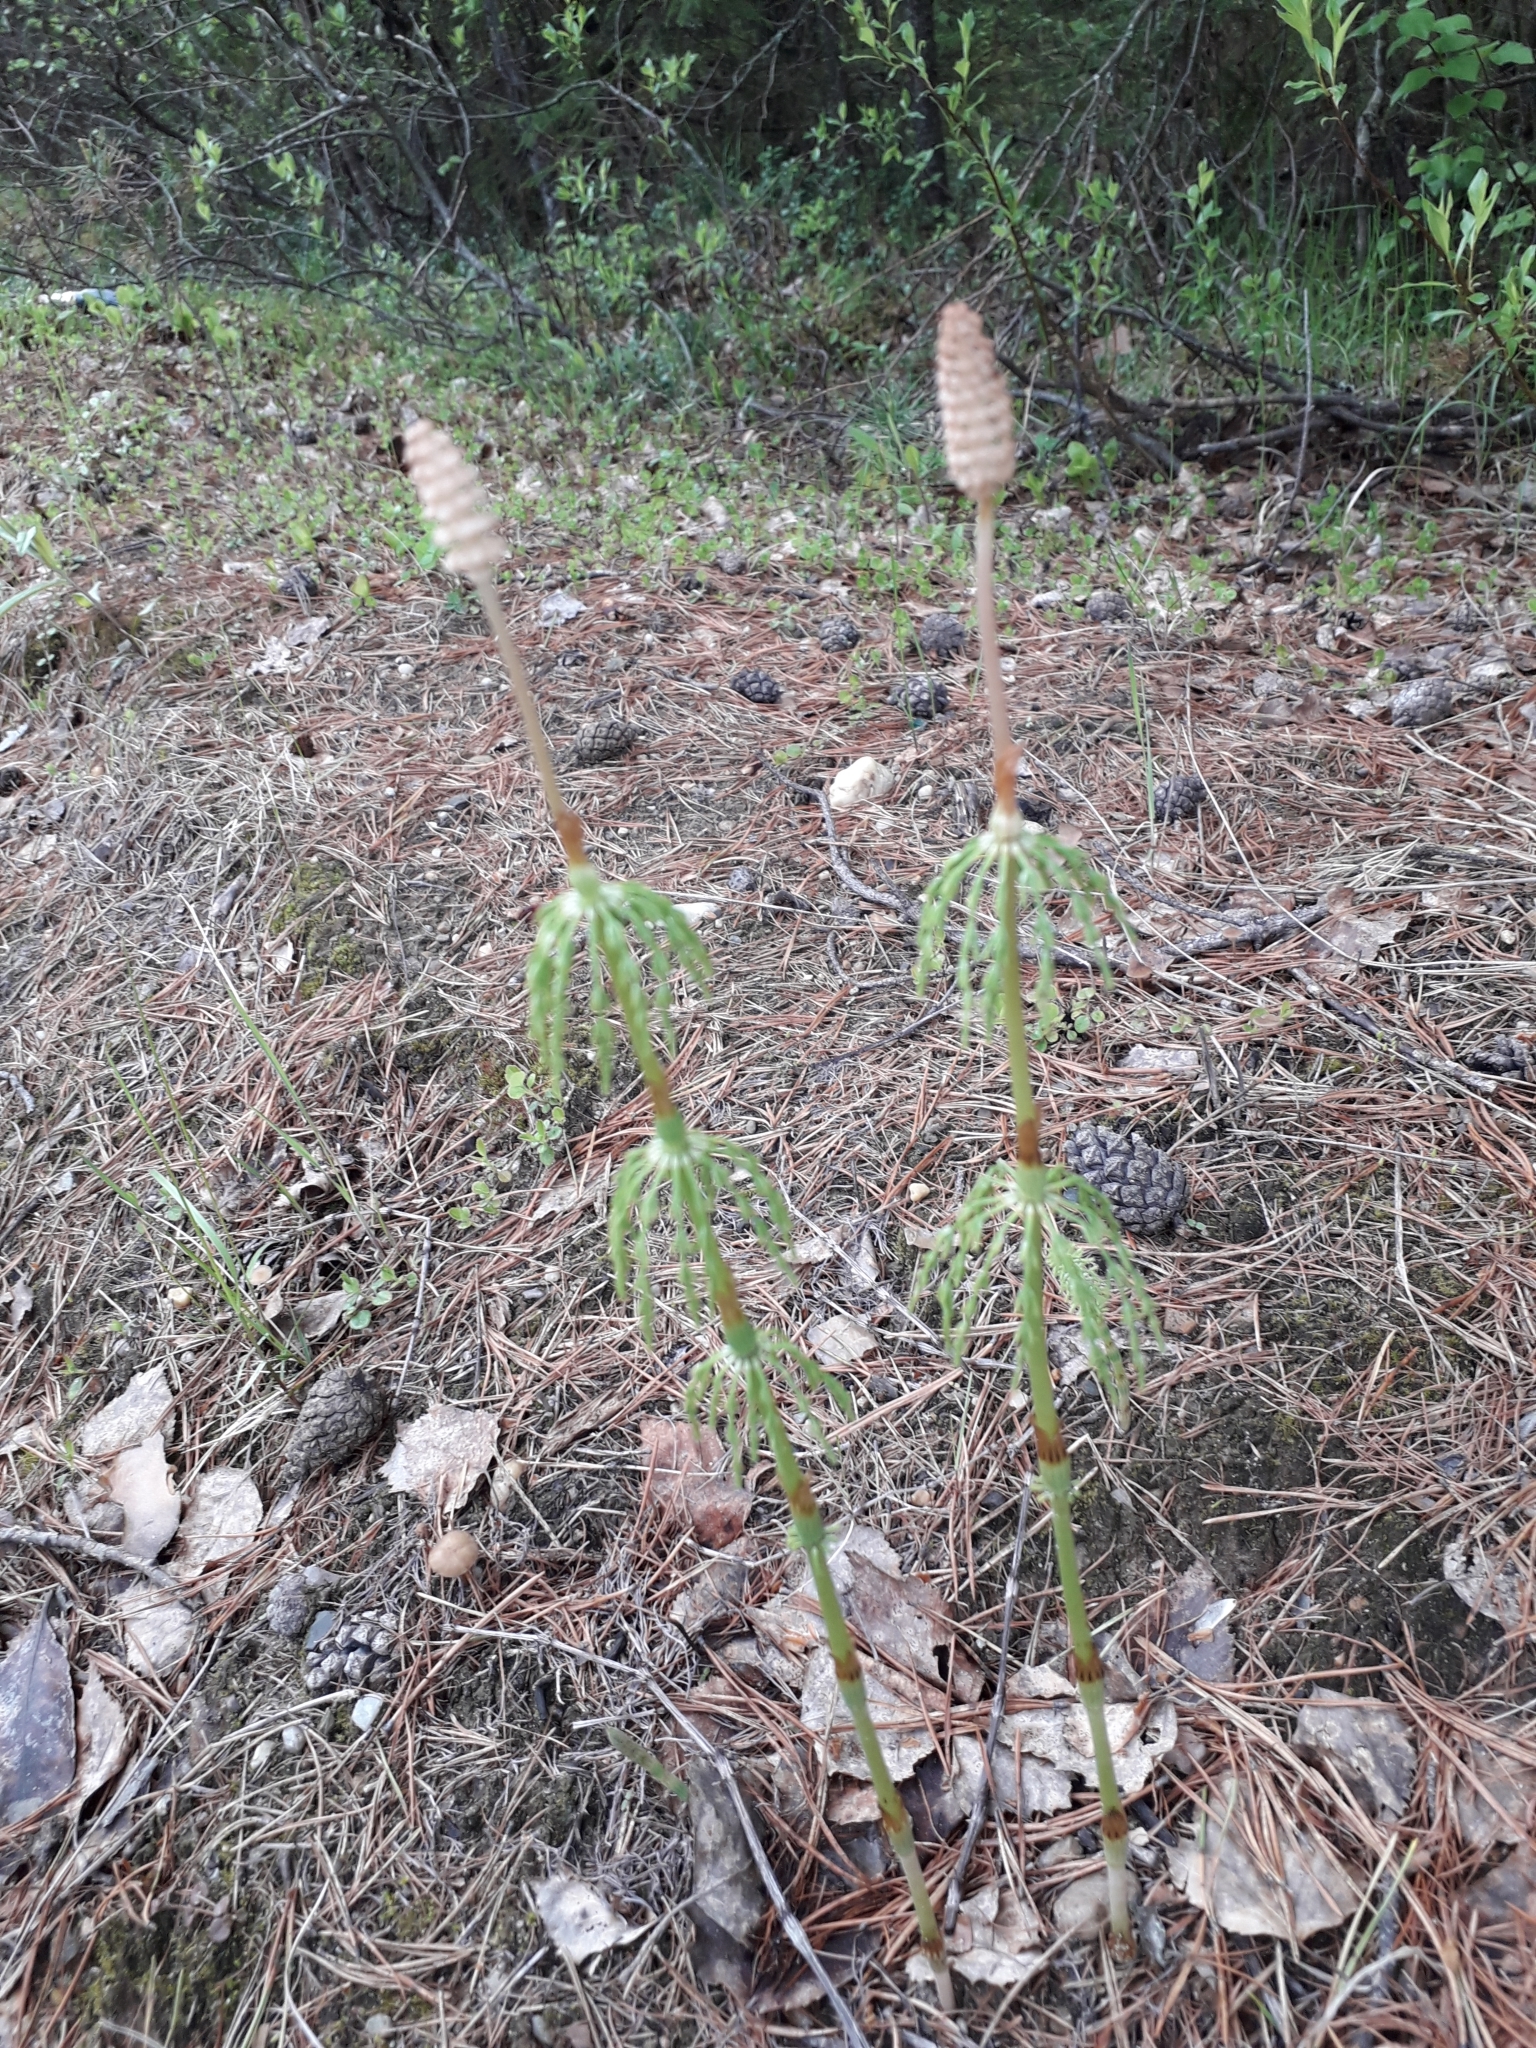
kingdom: Plantae
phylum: Tracheophyta
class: Polypodiopsida
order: Equisetales
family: Equisetaceae
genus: Equisetum
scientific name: Equisetum sylvaticum
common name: Wood horsetail
